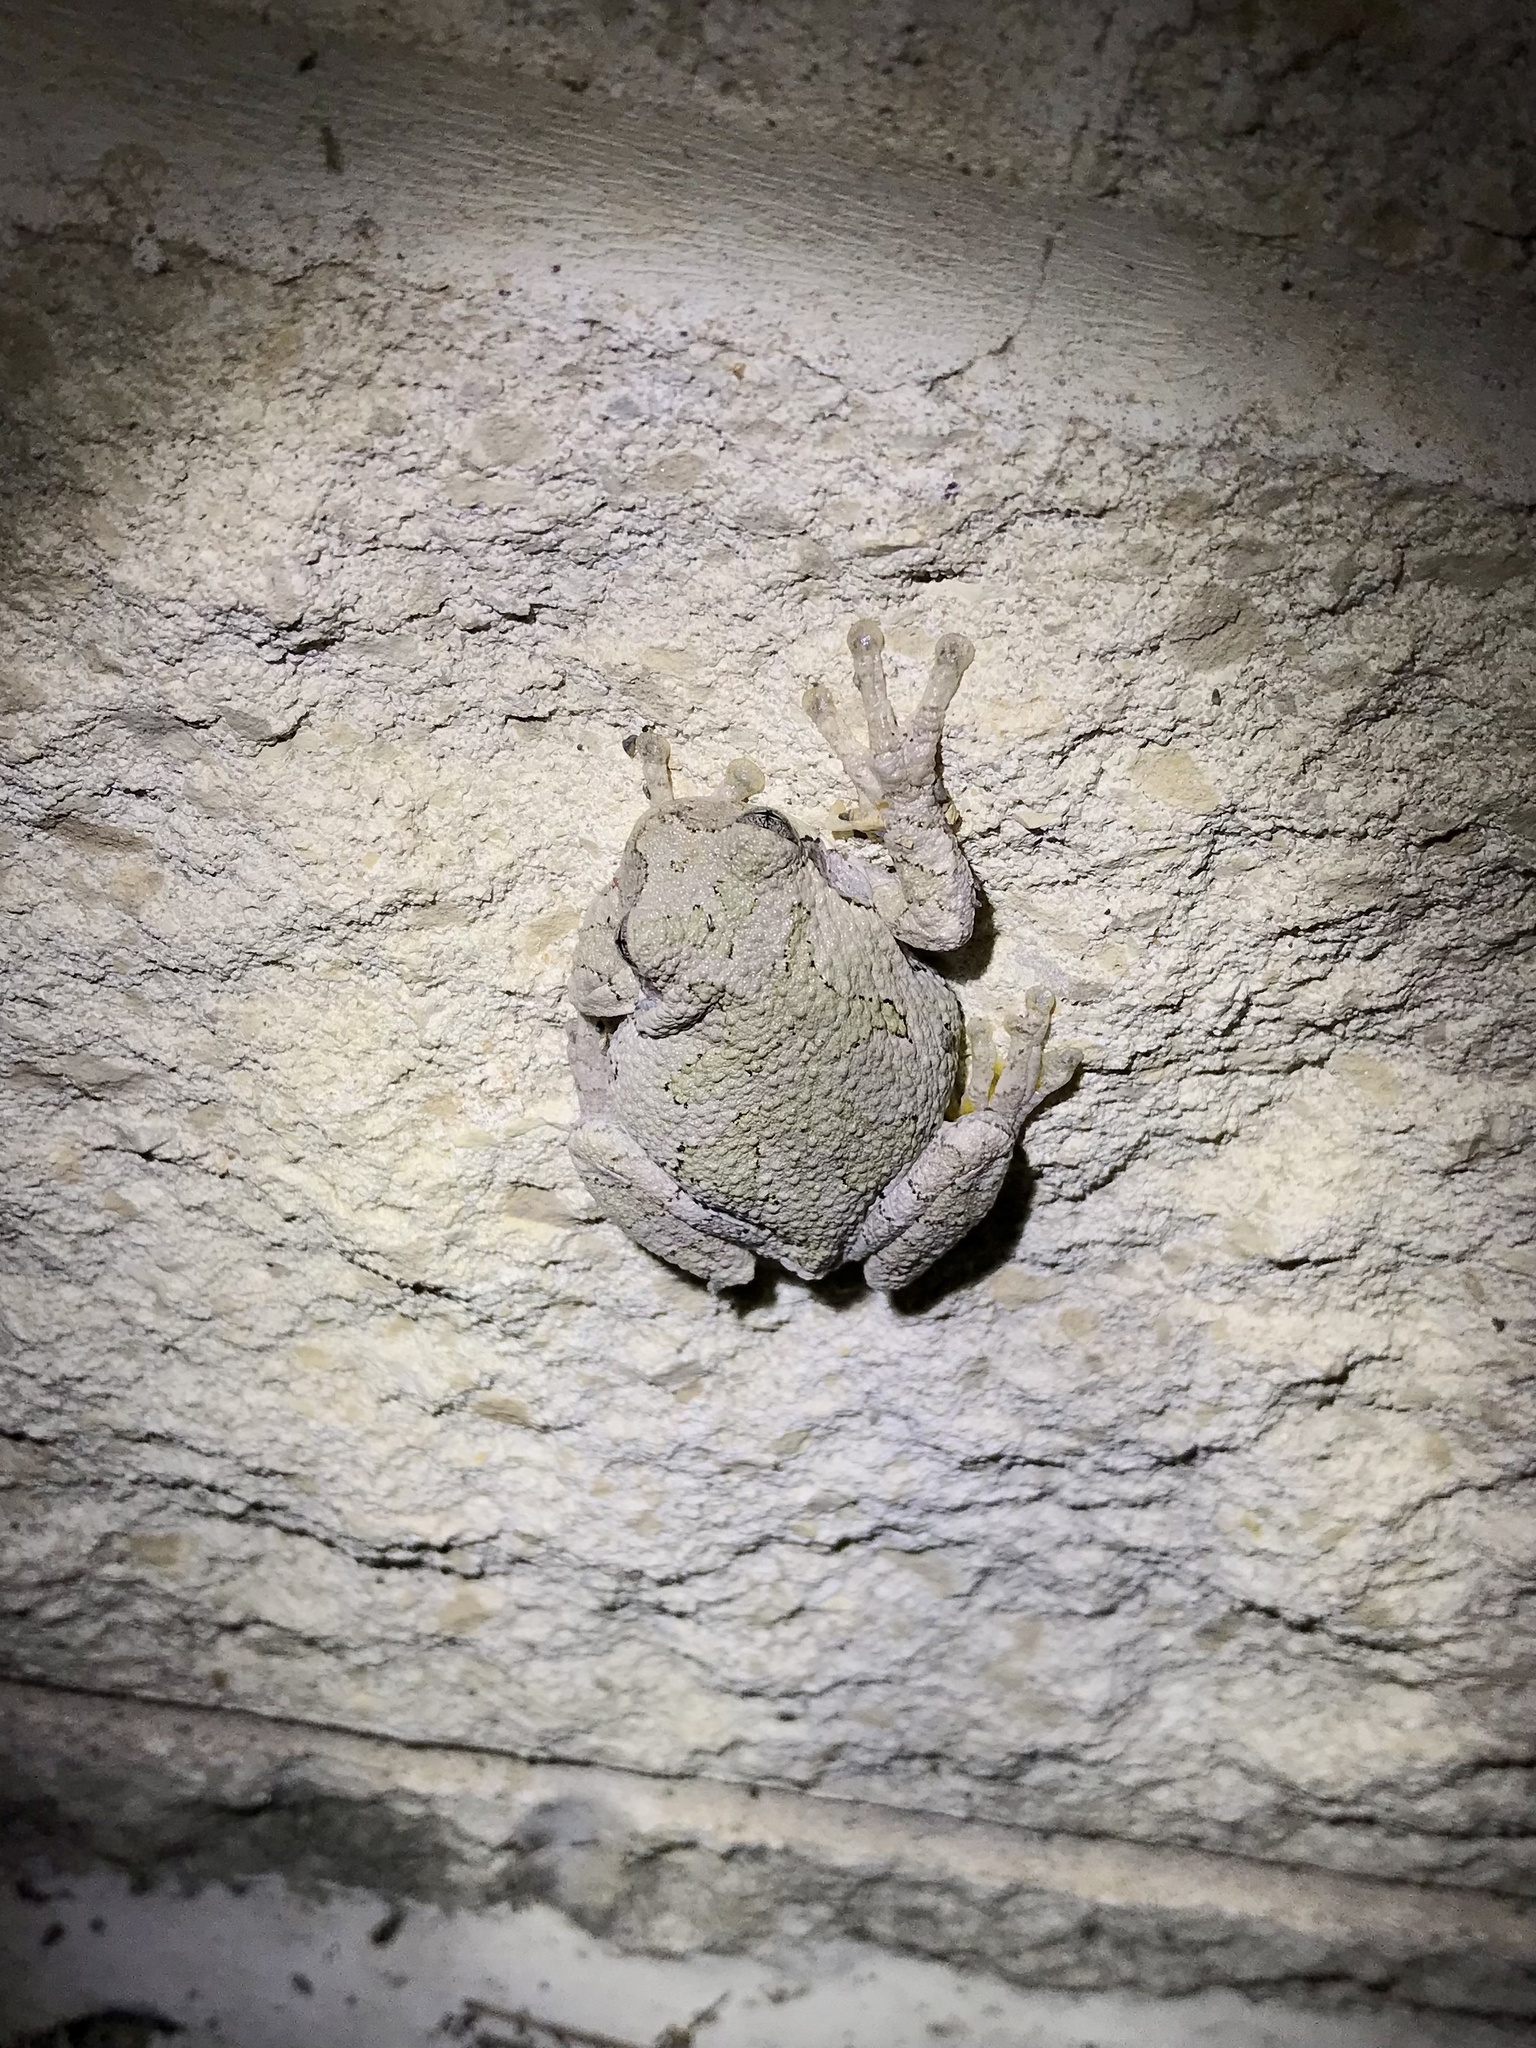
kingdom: Animalia
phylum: Chordata
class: Amphibia
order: Anura
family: Hylidae
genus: Hyla
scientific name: Hyla
